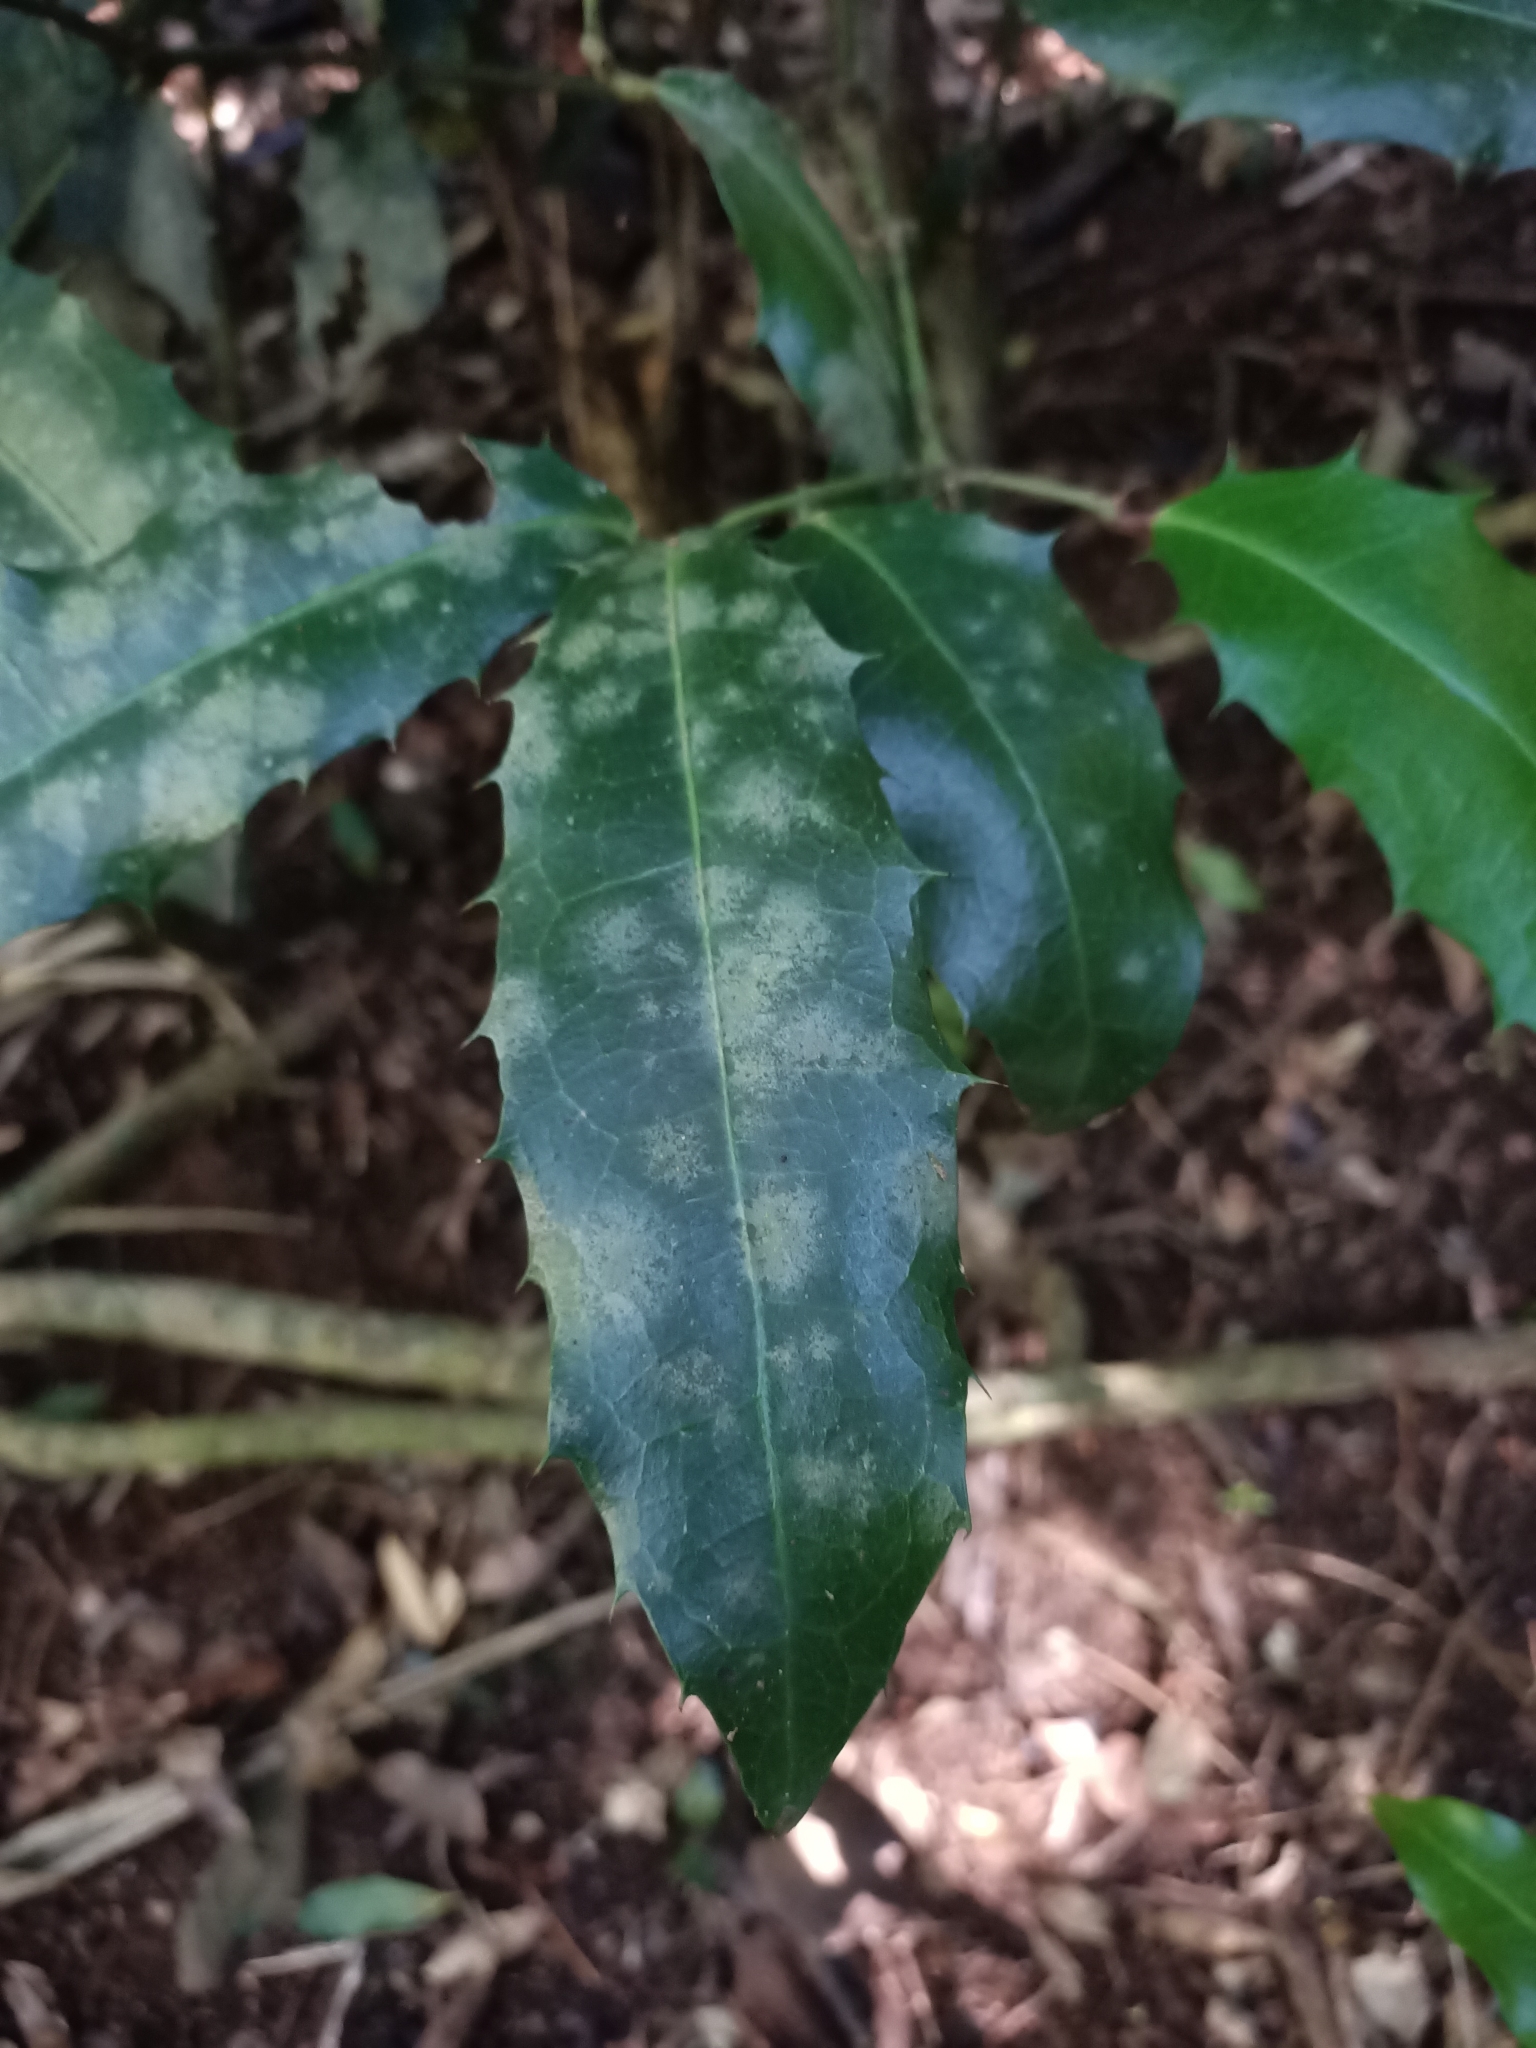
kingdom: Plantae
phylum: Tracheophyta
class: Magnoliopsida
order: Laurales
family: Monimiaceae
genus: Wilkiea
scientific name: Wilkiea macrophylla
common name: Large-leaved wilkiea
